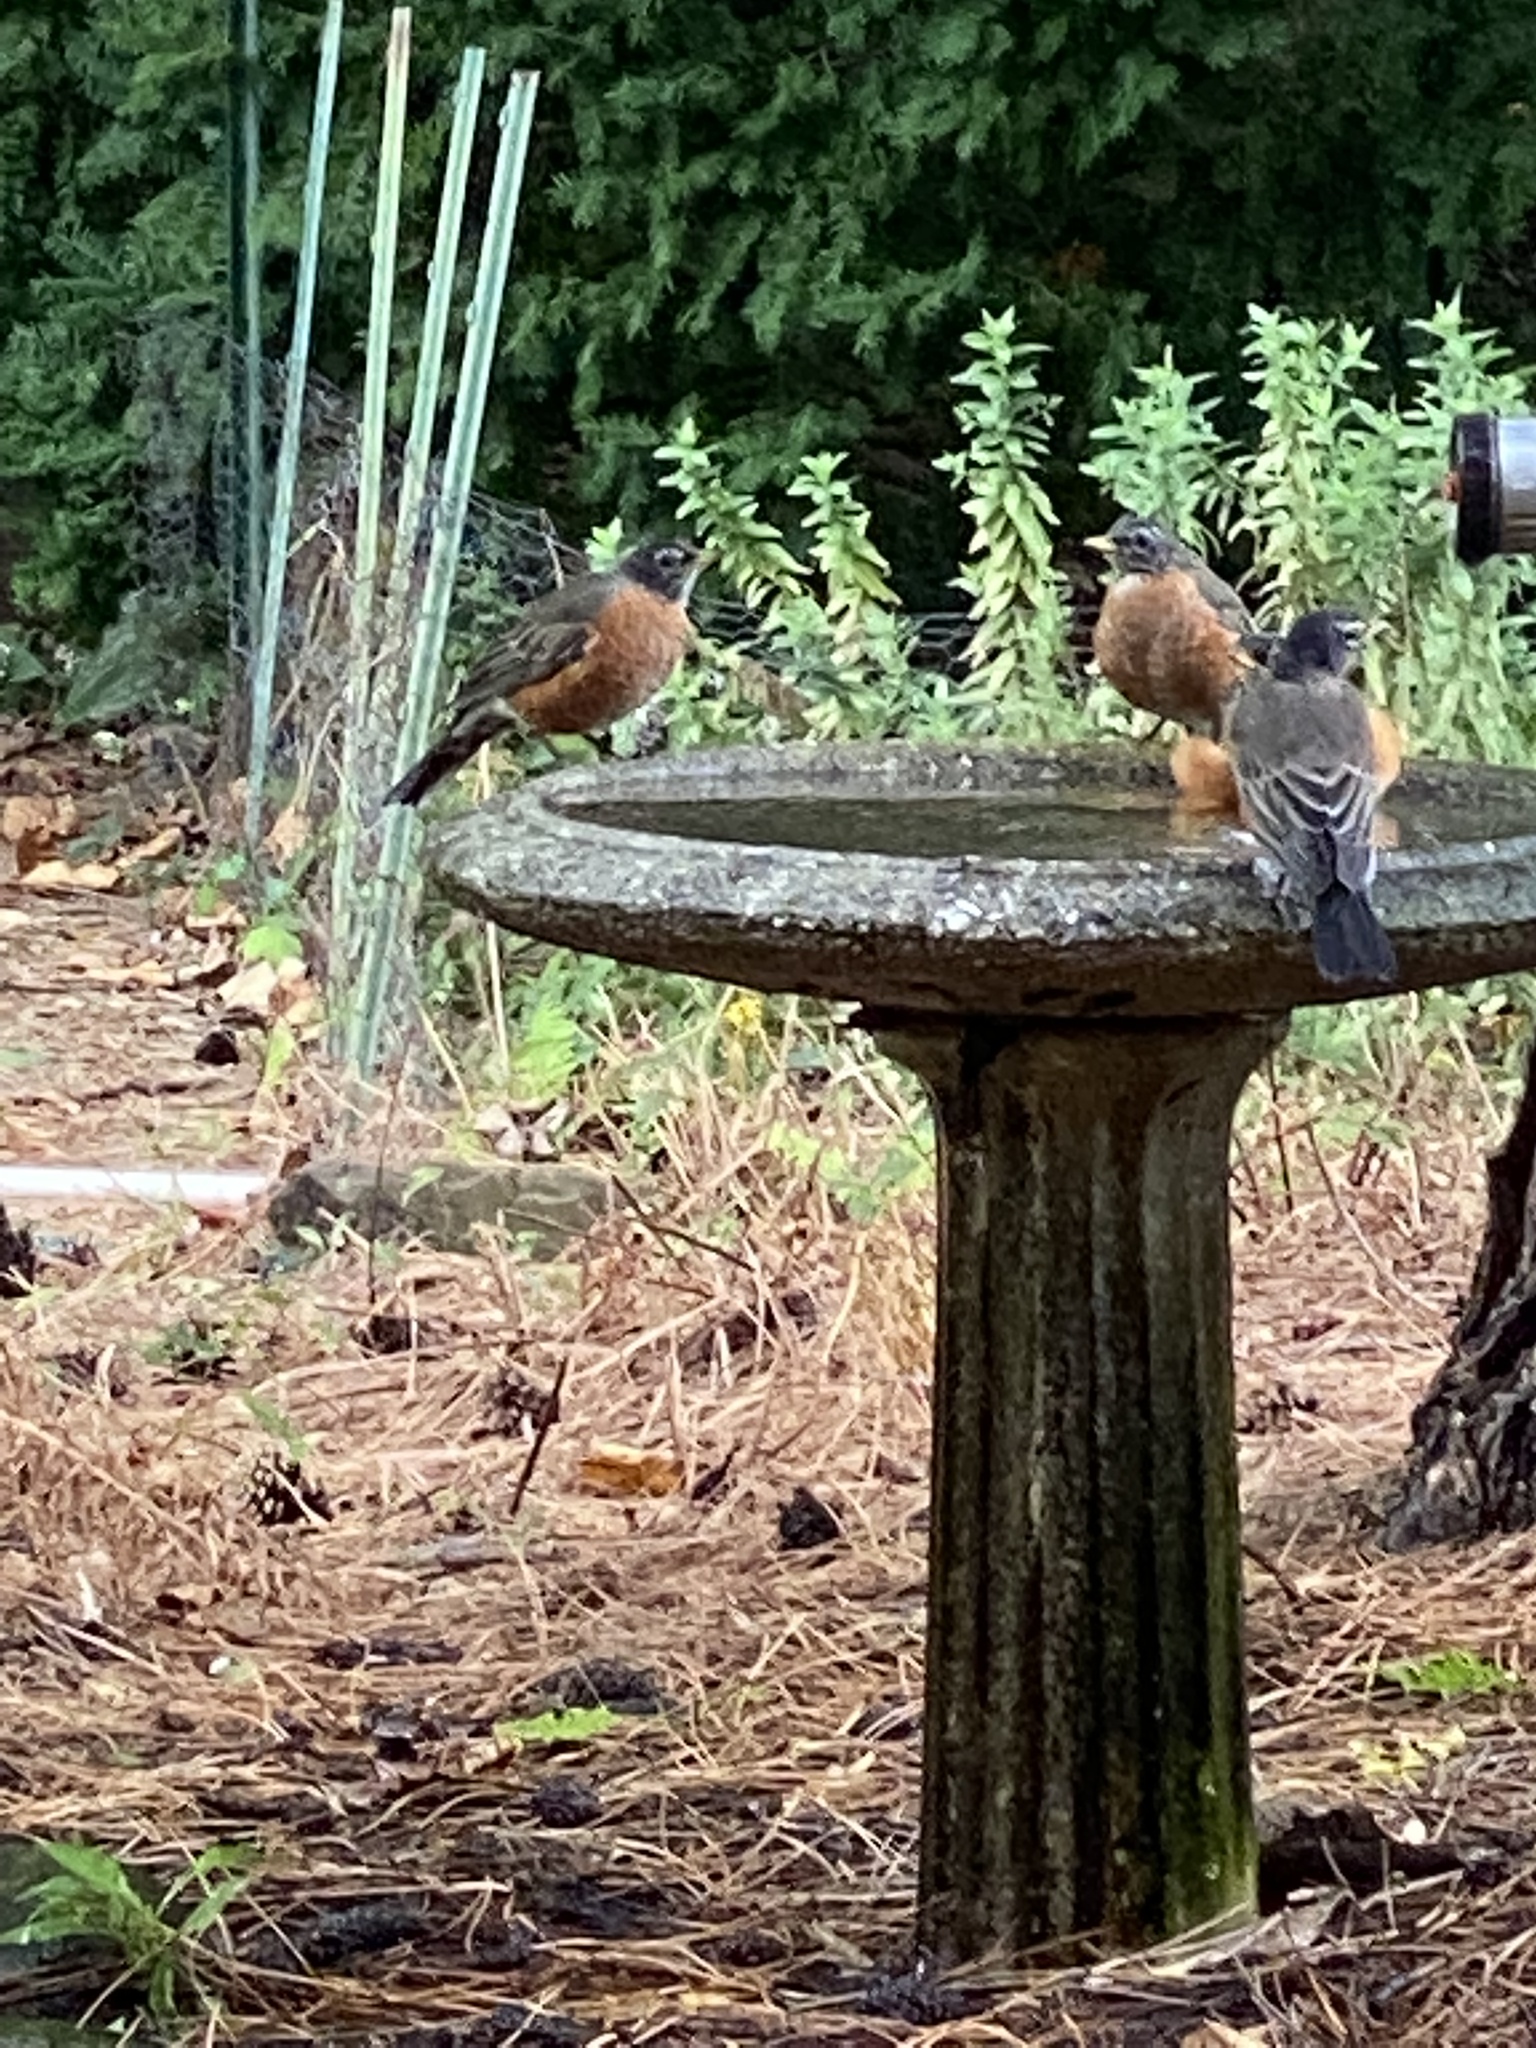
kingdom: Animalia
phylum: Chordata
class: Aves
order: Passeriformes
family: Turdidae
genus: Turdus
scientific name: Turdus migratorius
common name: American robin
